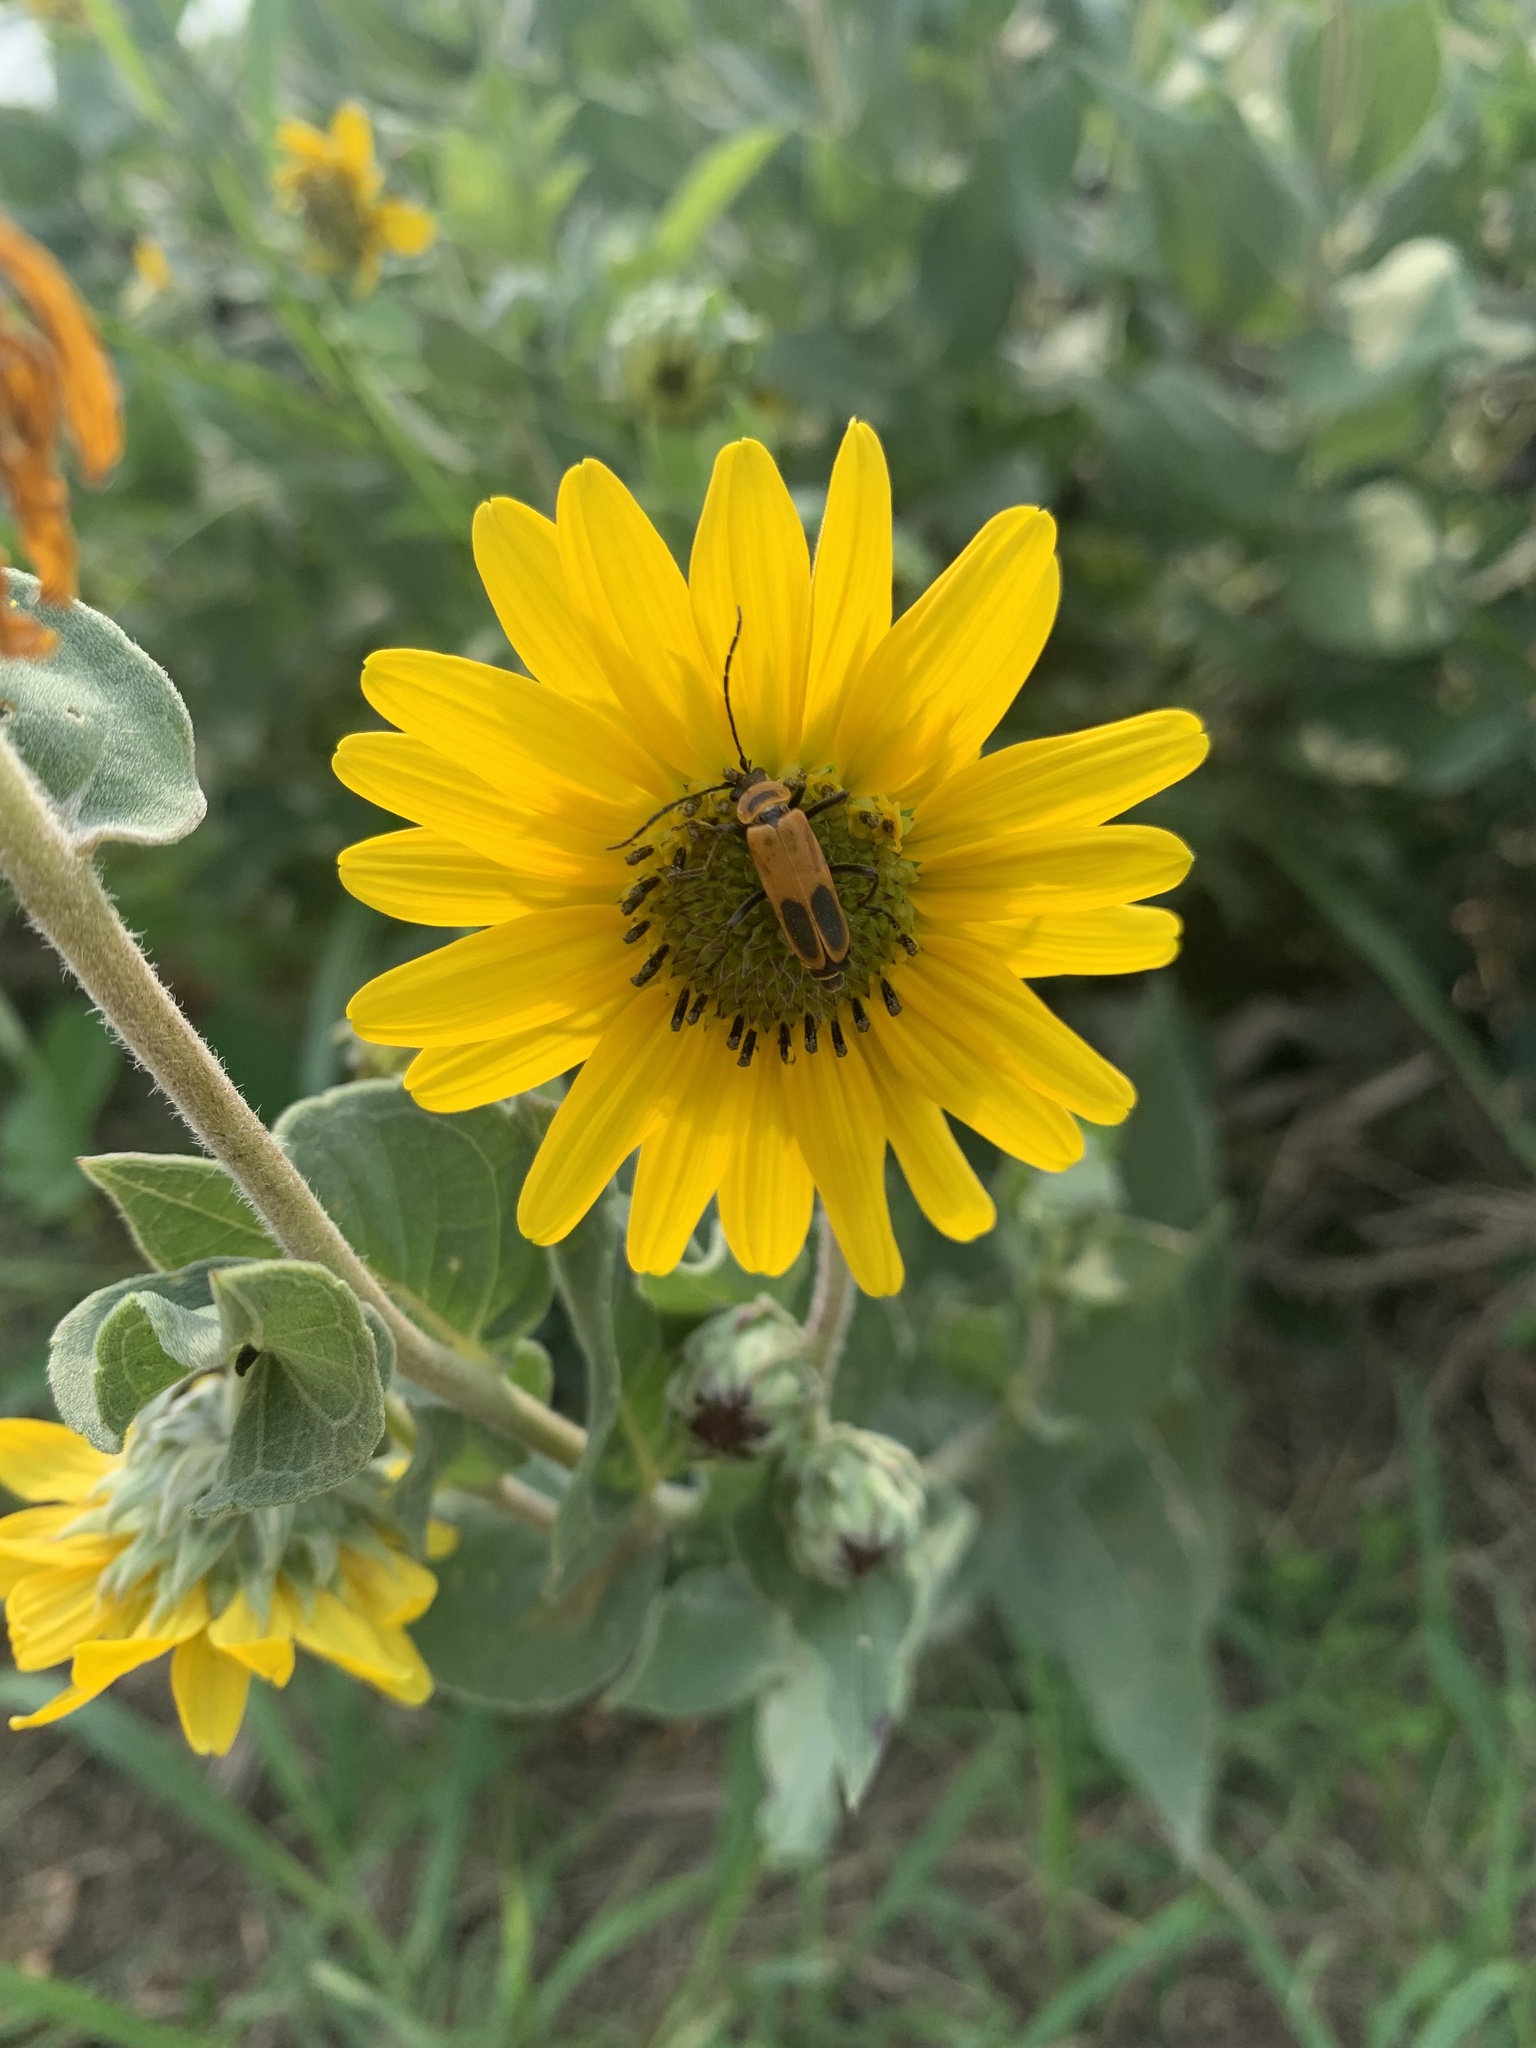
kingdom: Animalia
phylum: Arthropoda
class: Insecta
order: Coleoptera
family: Cantharidae
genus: Chauliognathus
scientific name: Chauliognathus pensylvanicus
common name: Goldenrod soldier beetle
